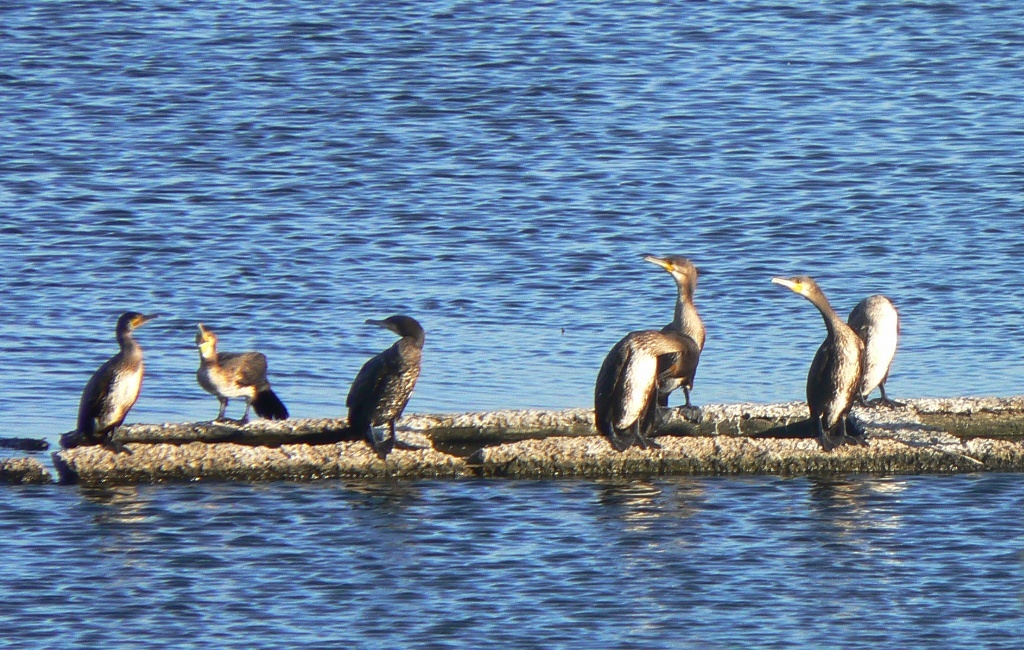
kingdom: Animalia
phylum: Chordata
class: Aves
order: Suliformes
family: Phalacrocoracidae
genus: Phalacrocorax
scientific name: Phalacrocorax carbo
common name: Great cormorant
